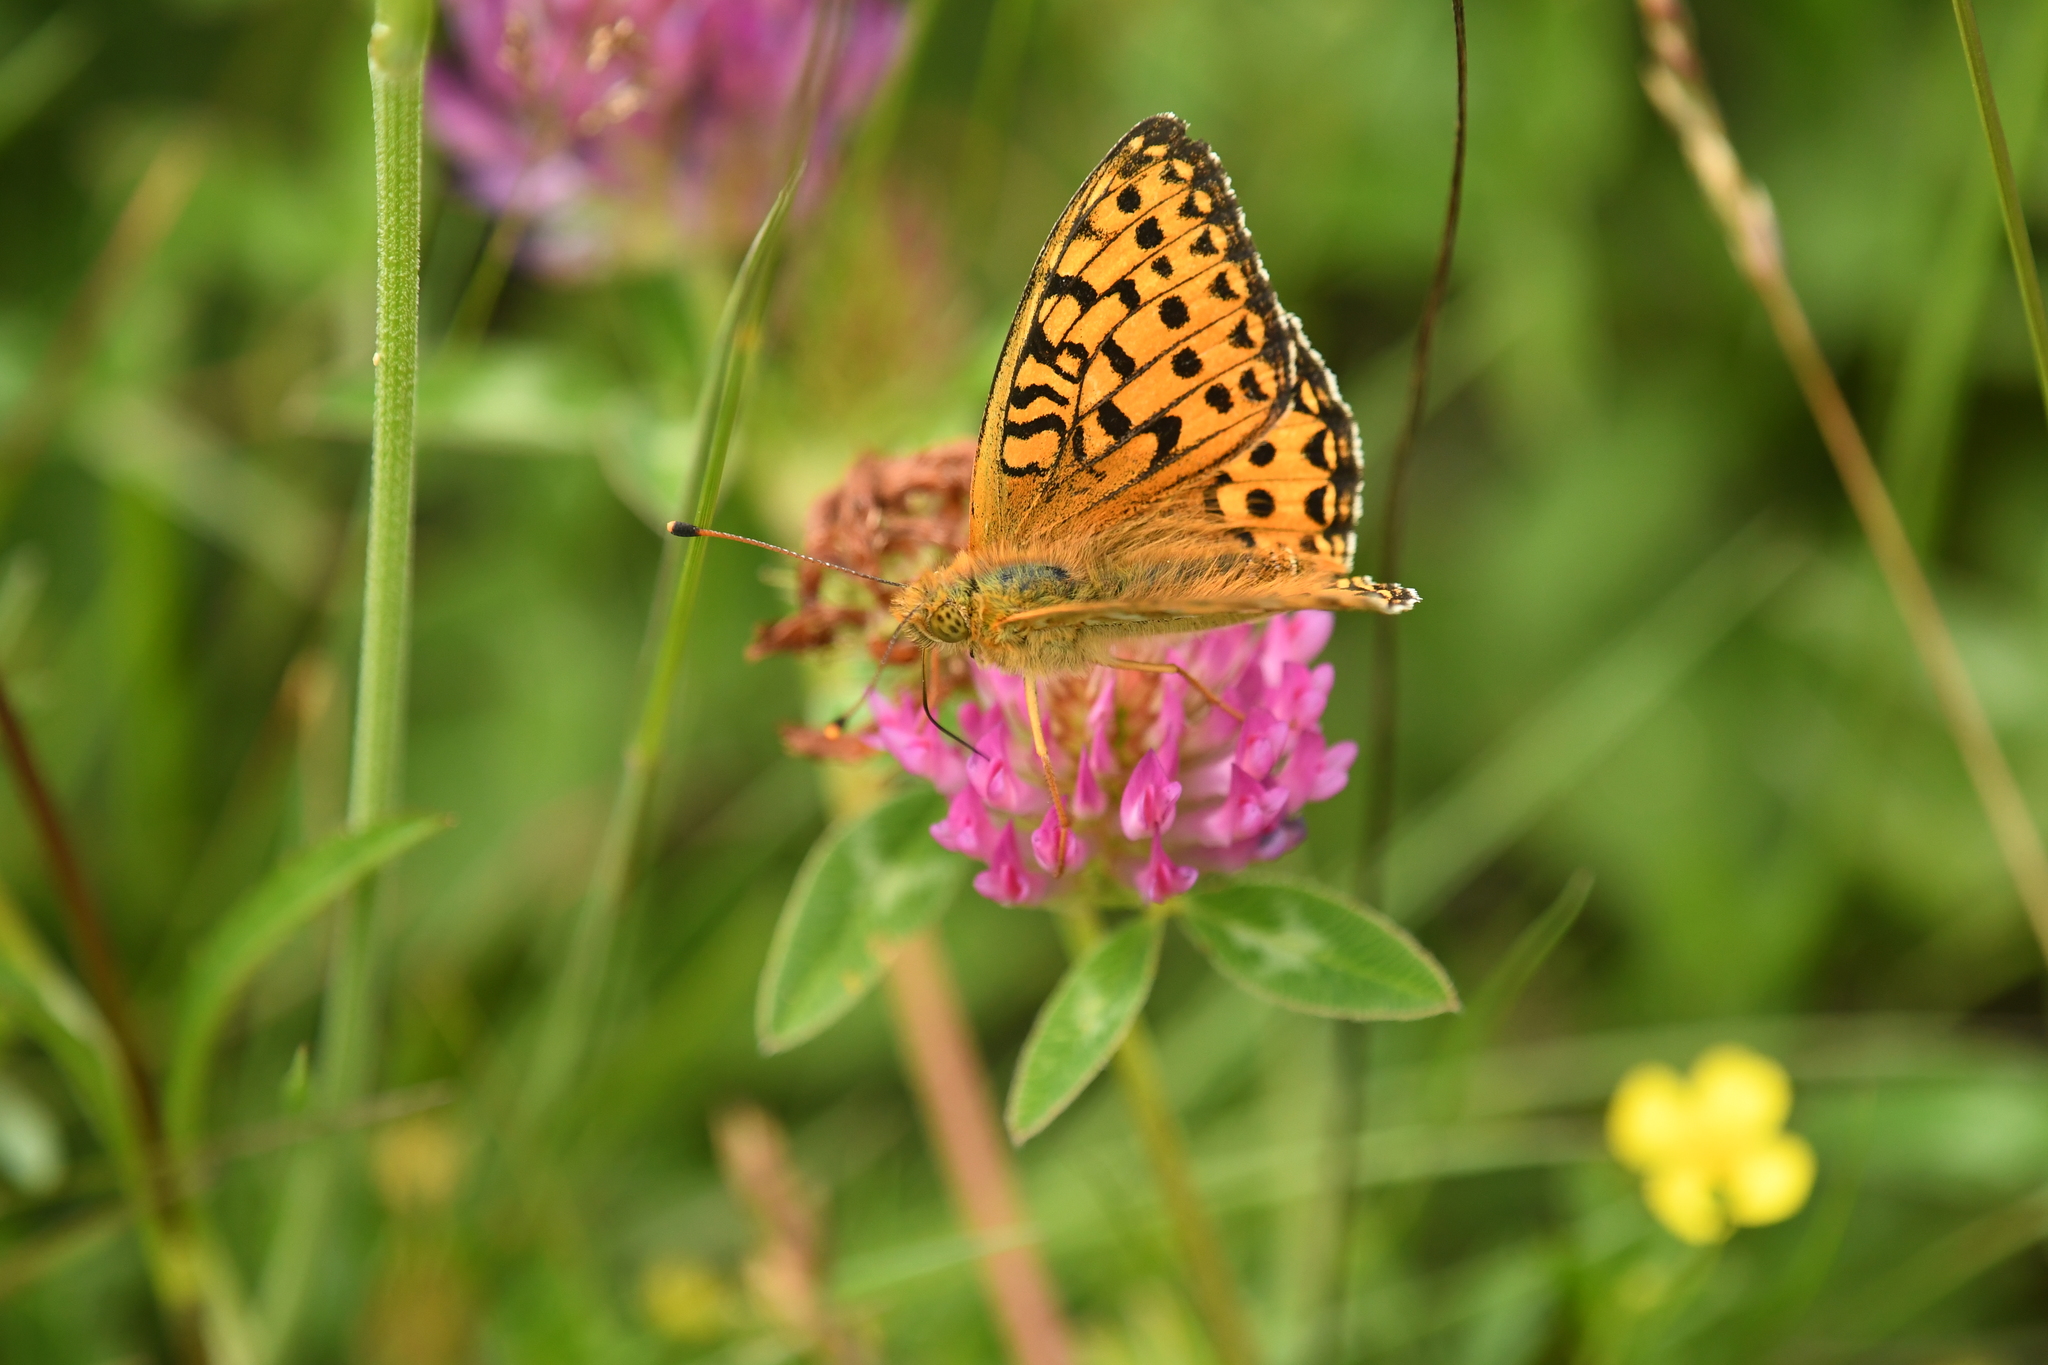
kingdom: Animalia
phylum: Arthropoda
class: Insecta
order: Lepidoptera
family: Nymphalidae
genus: Speyeria
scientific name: Speyeria aglaja
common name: Dark green fritillary
